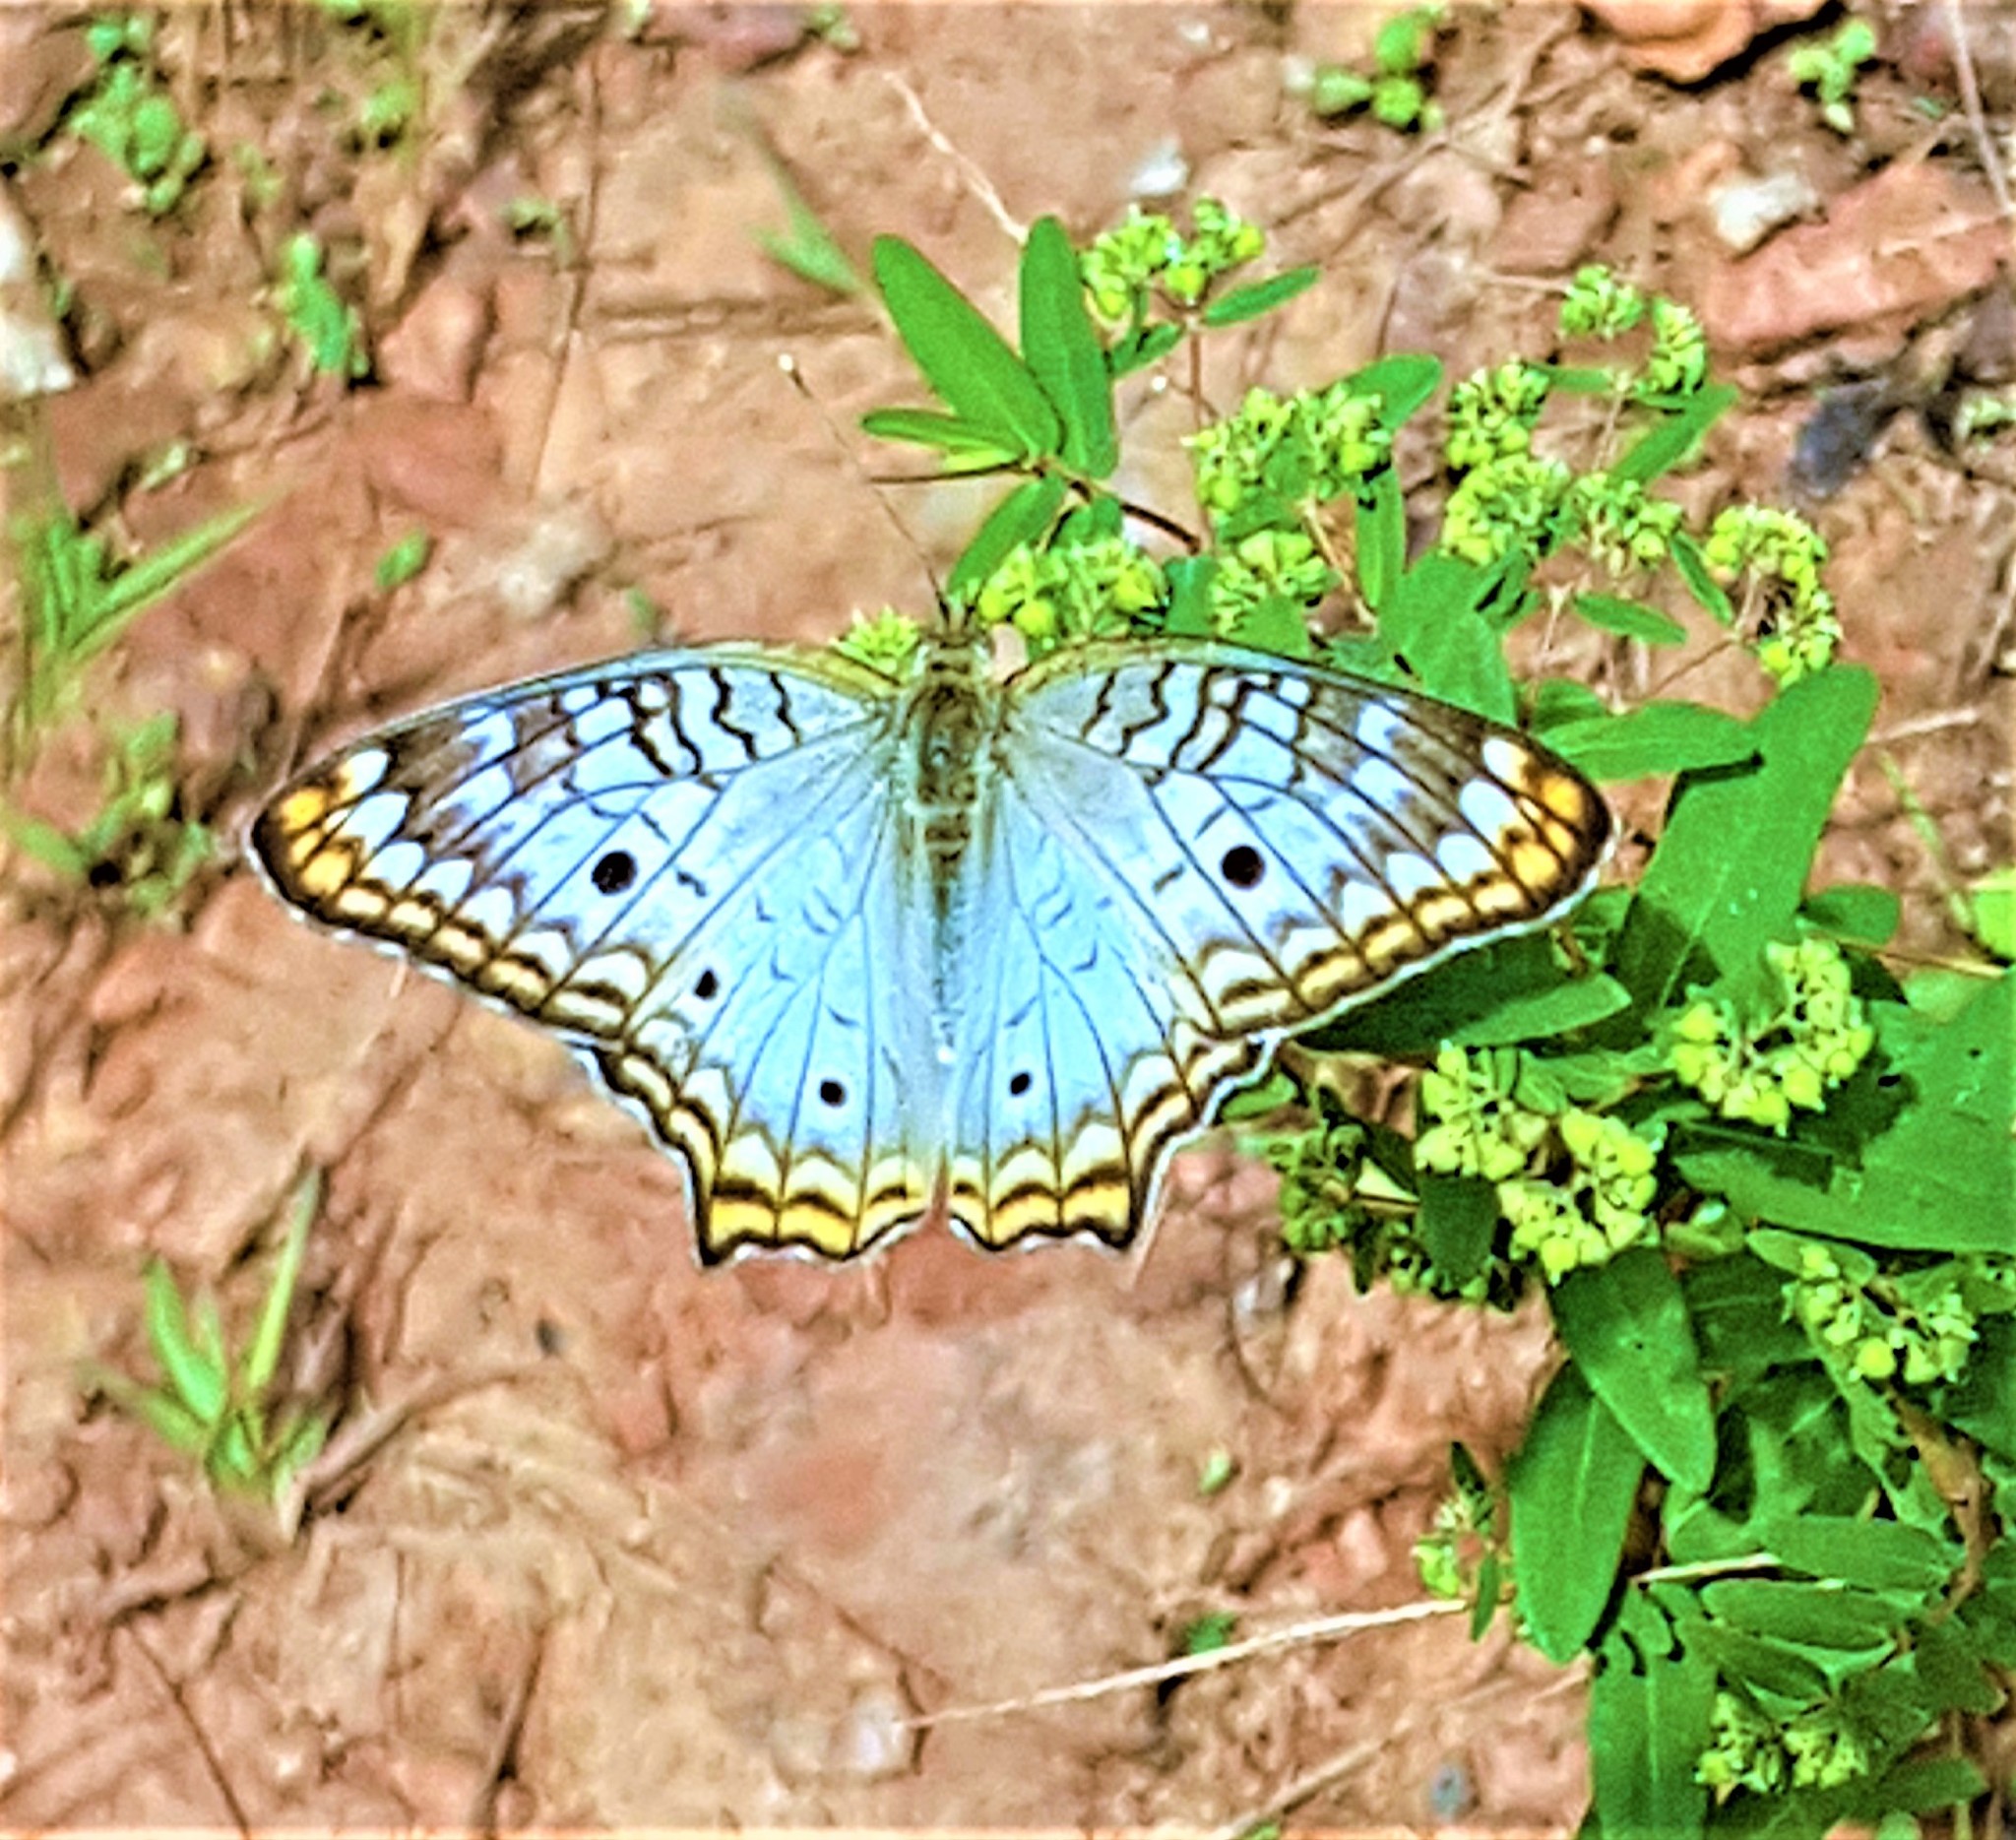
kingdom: Animalia
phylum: Arthropoda
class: Insecta
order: Lepidoptera
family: Nymphalidae
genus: Anartia
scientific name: Anartia jatrophae
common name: White peacock
